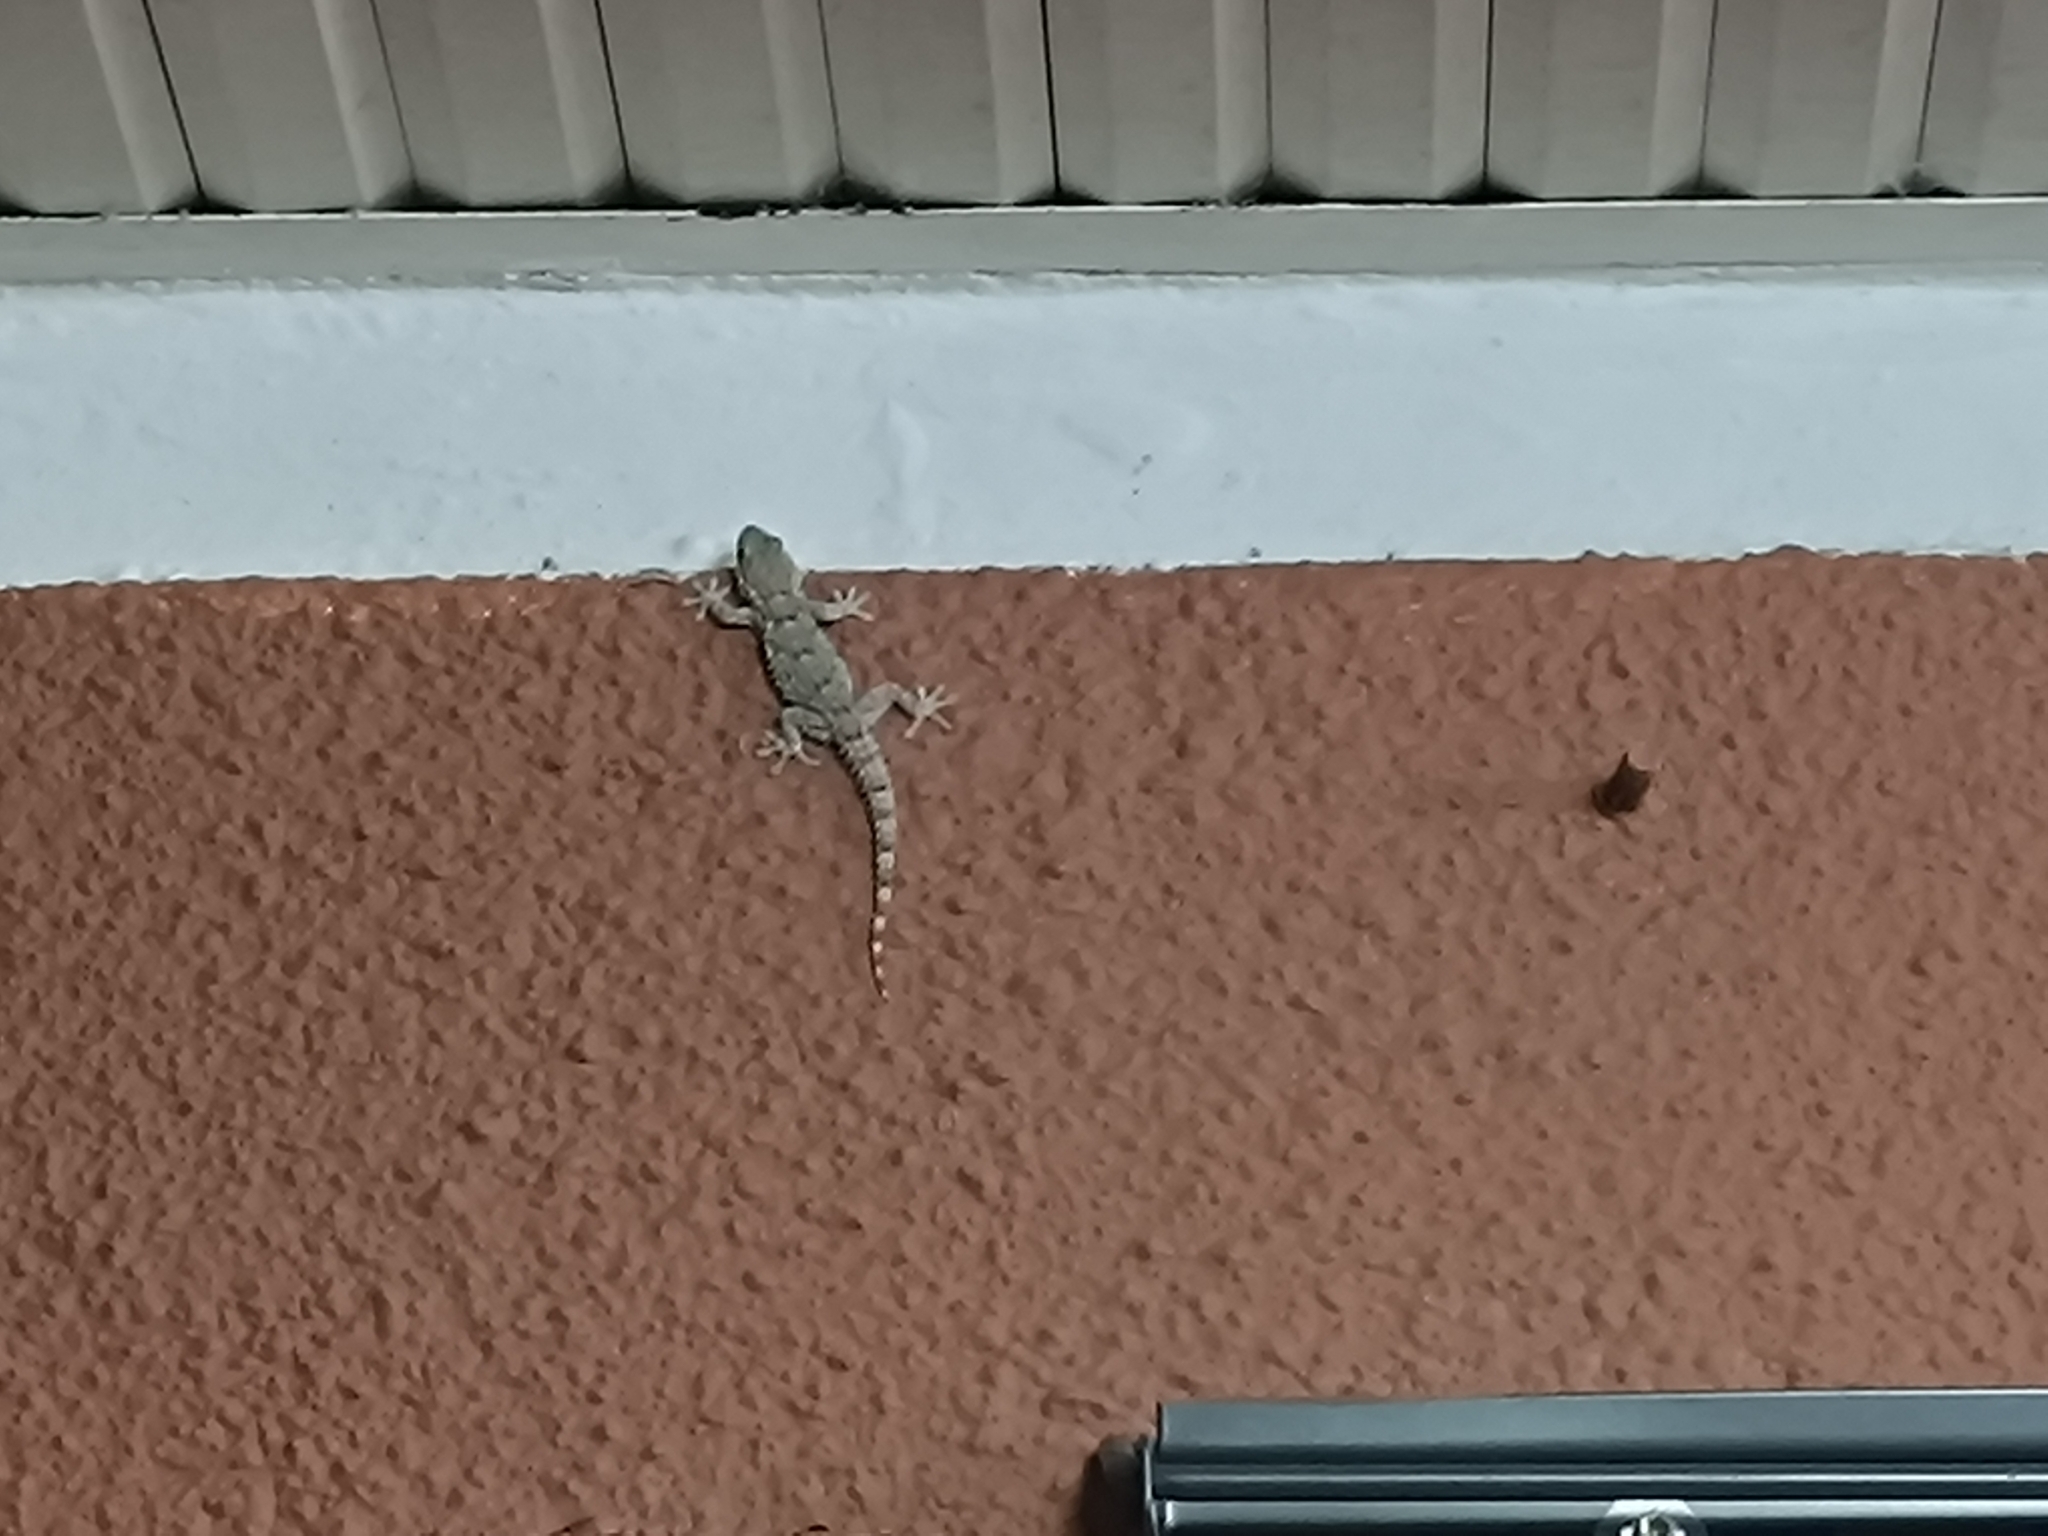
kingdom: Animalia
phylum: Chordata
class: Squamata
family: Phyllodactylidae
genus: Tarentola
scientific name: Tarentola mauritanica
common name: Moorish gecko
